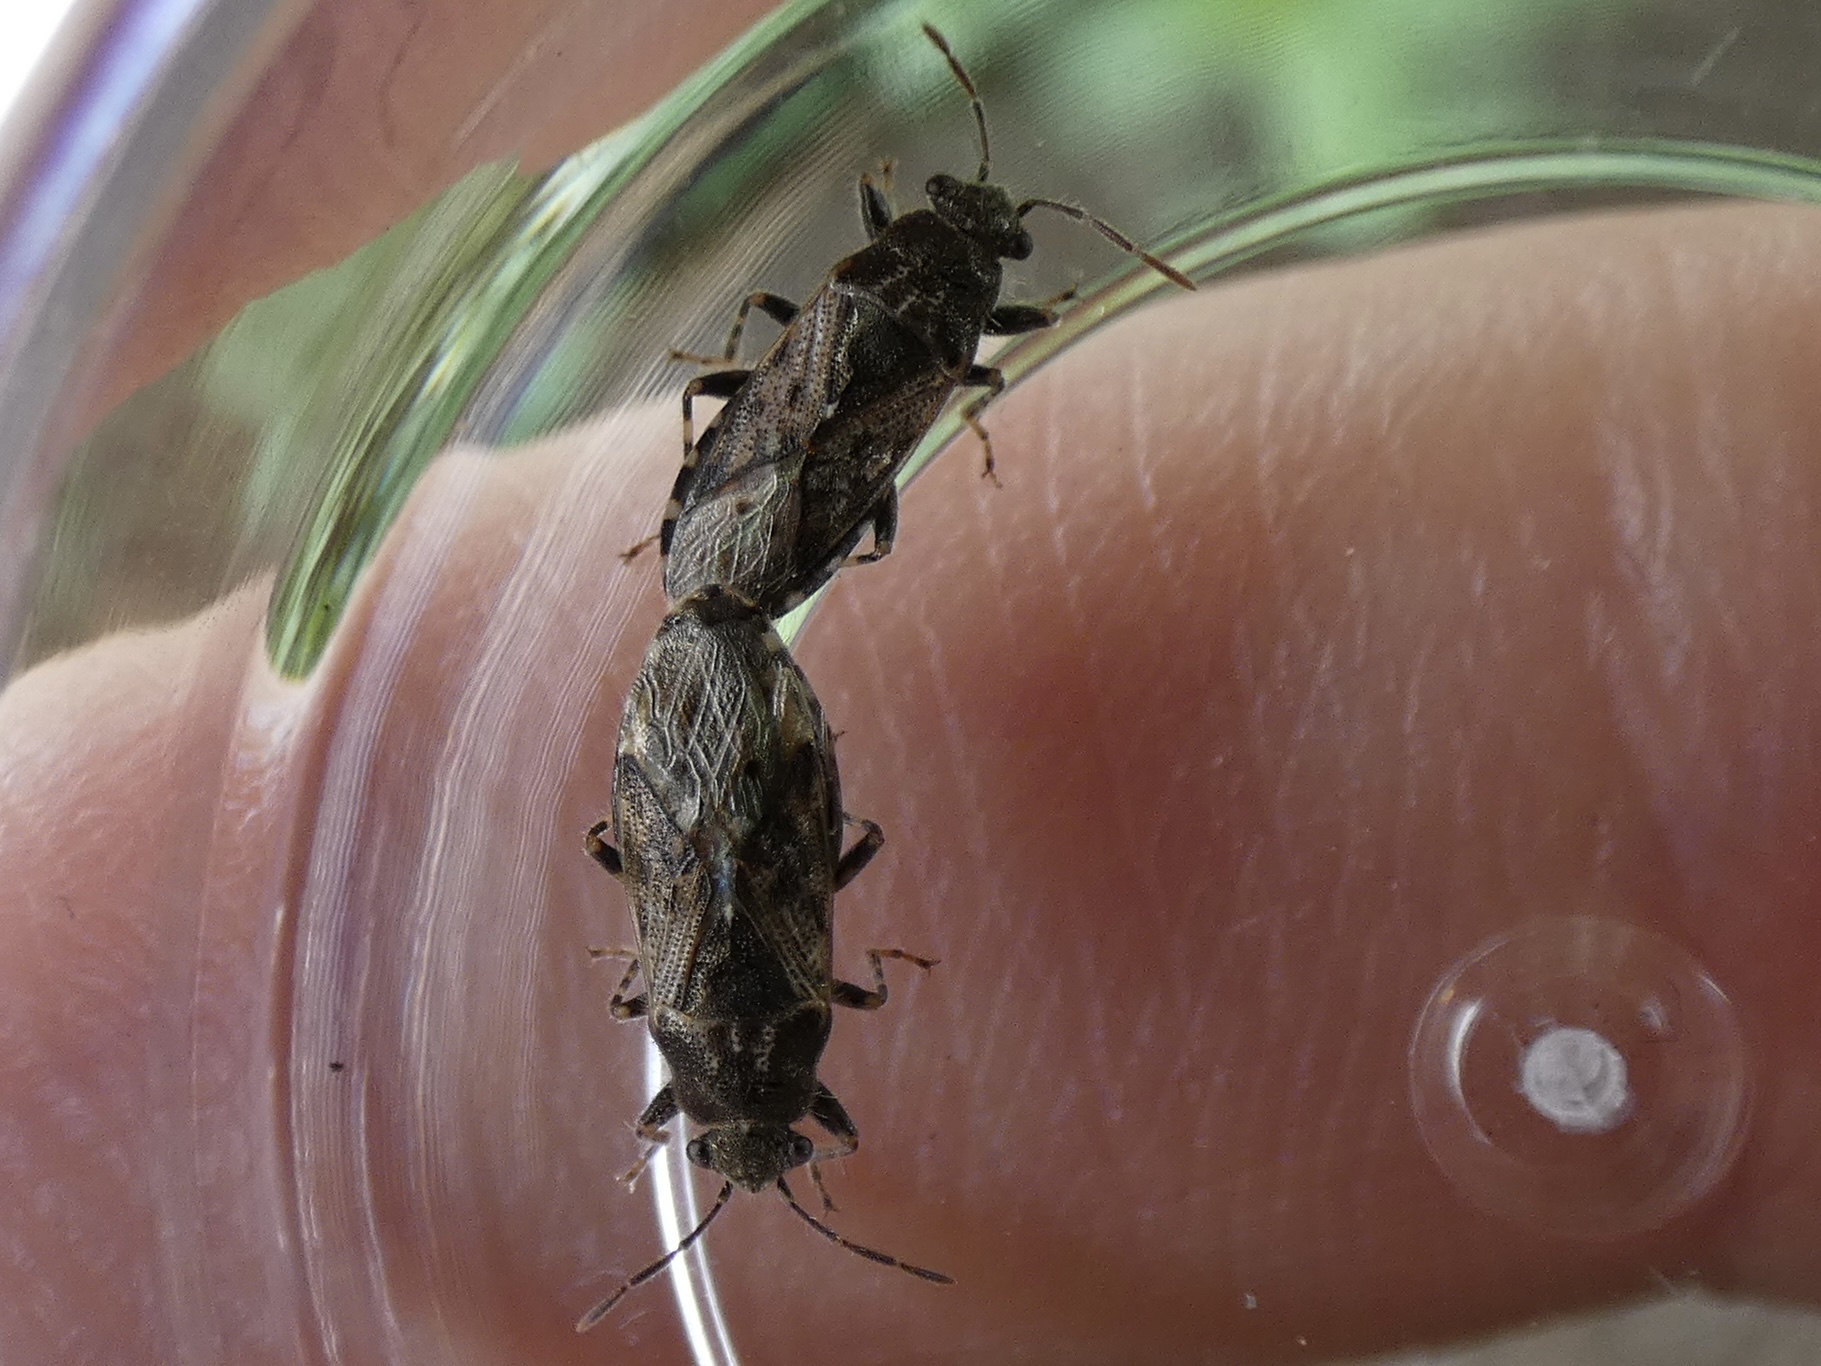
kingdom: Animalia
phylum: Arthropoda
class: Insecta
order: Hemiptera
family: Heterogastridae
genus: Heterogaster
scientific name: Heterogaster urticae
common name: Seed bug
